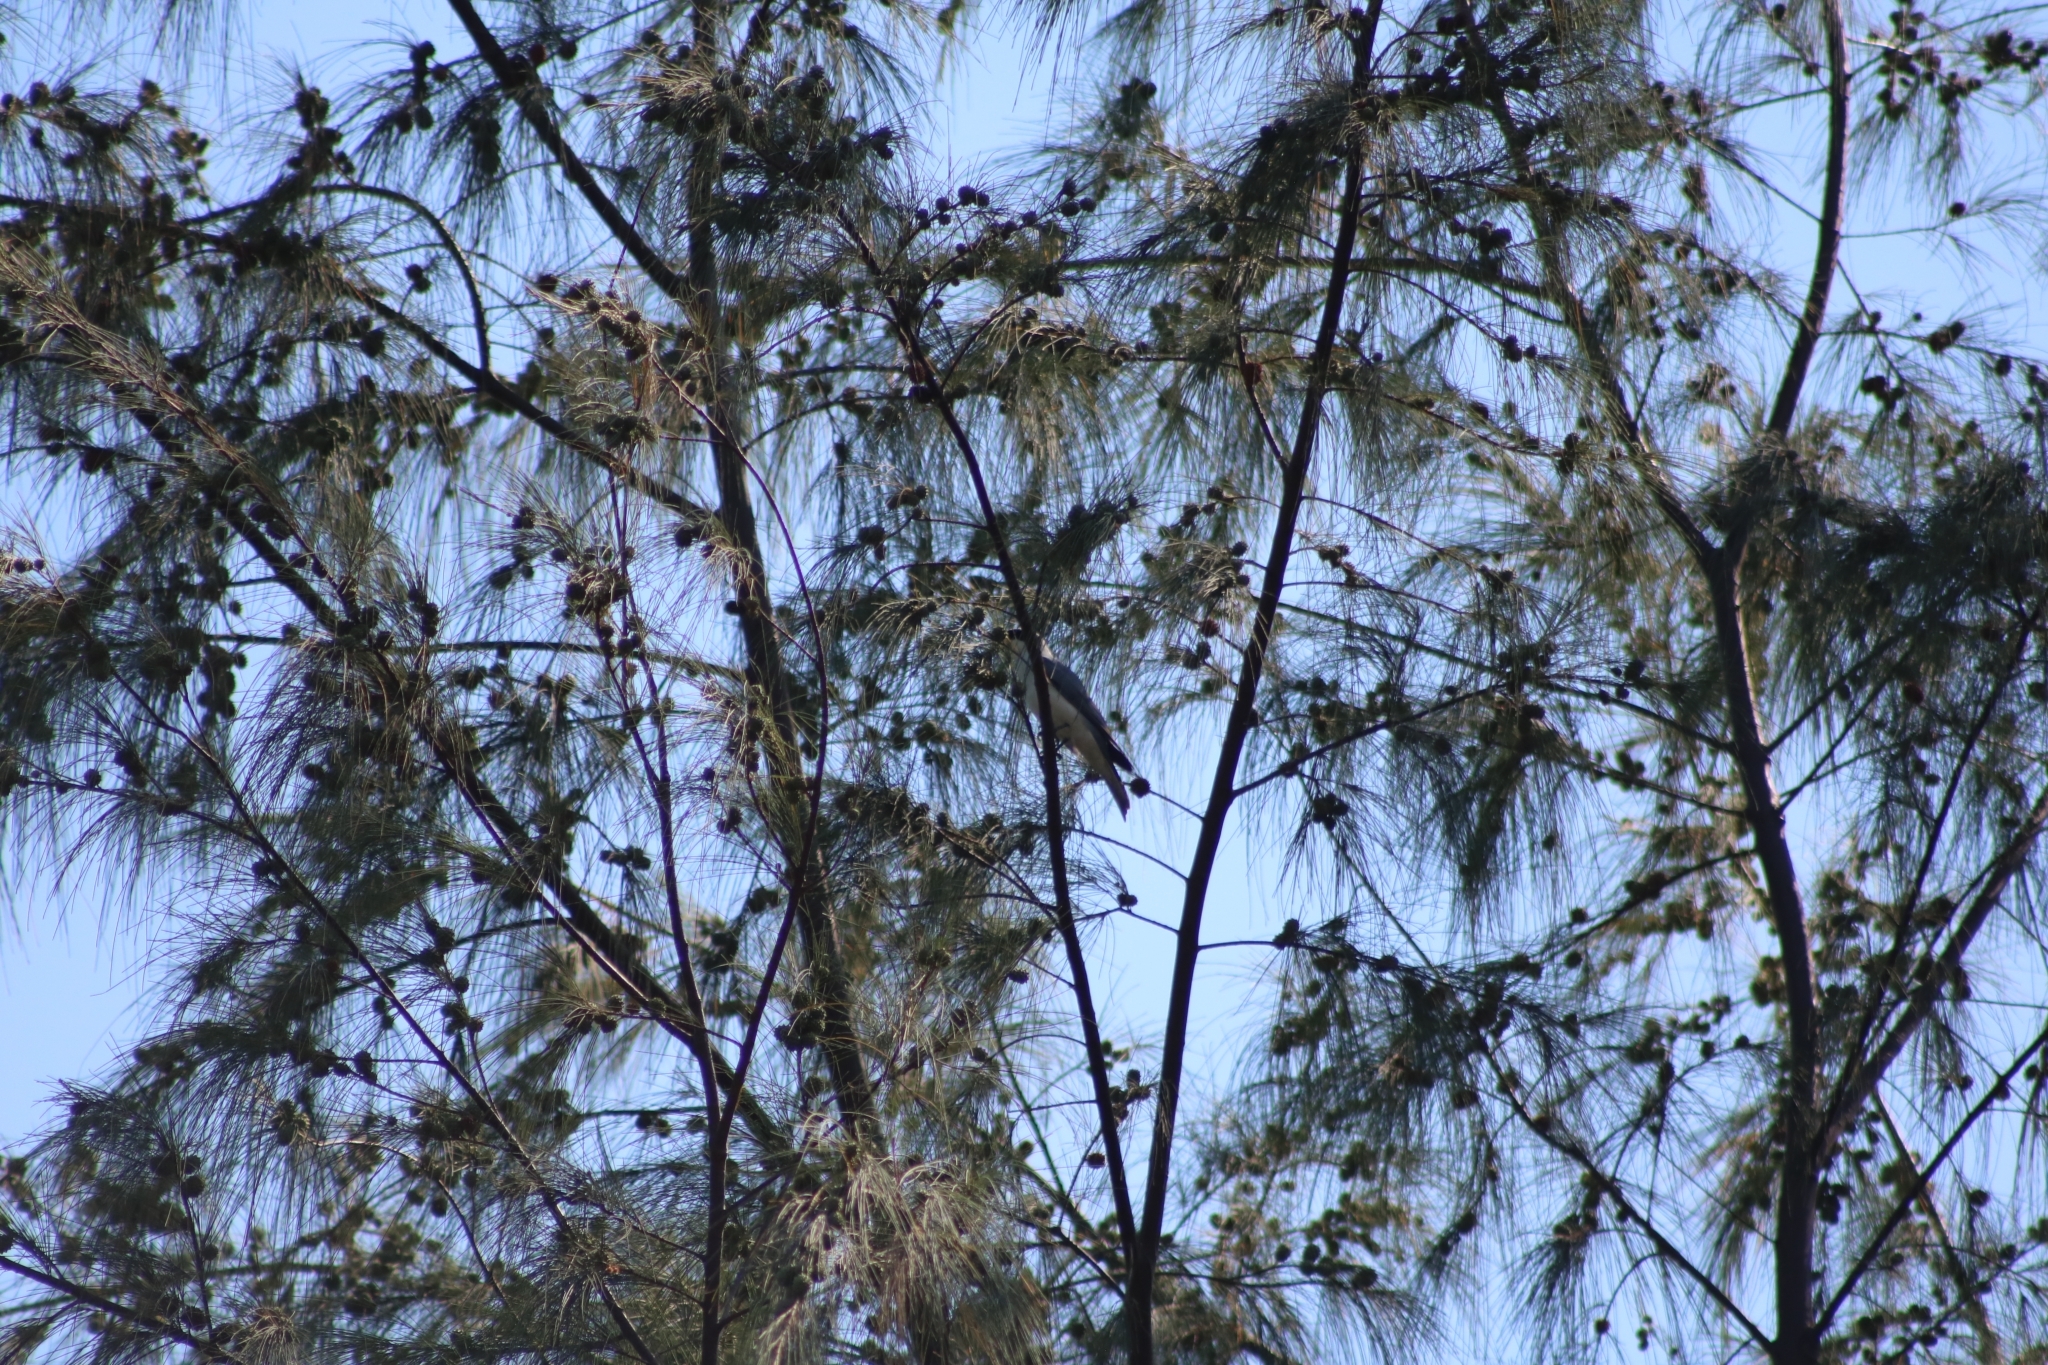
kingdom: Animalia
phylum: Chordata
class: Aves
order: Passeriformes
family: Campephagidae
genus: Coracina
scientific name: Coracina papuensis
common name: White-bellied cuckooshrike
